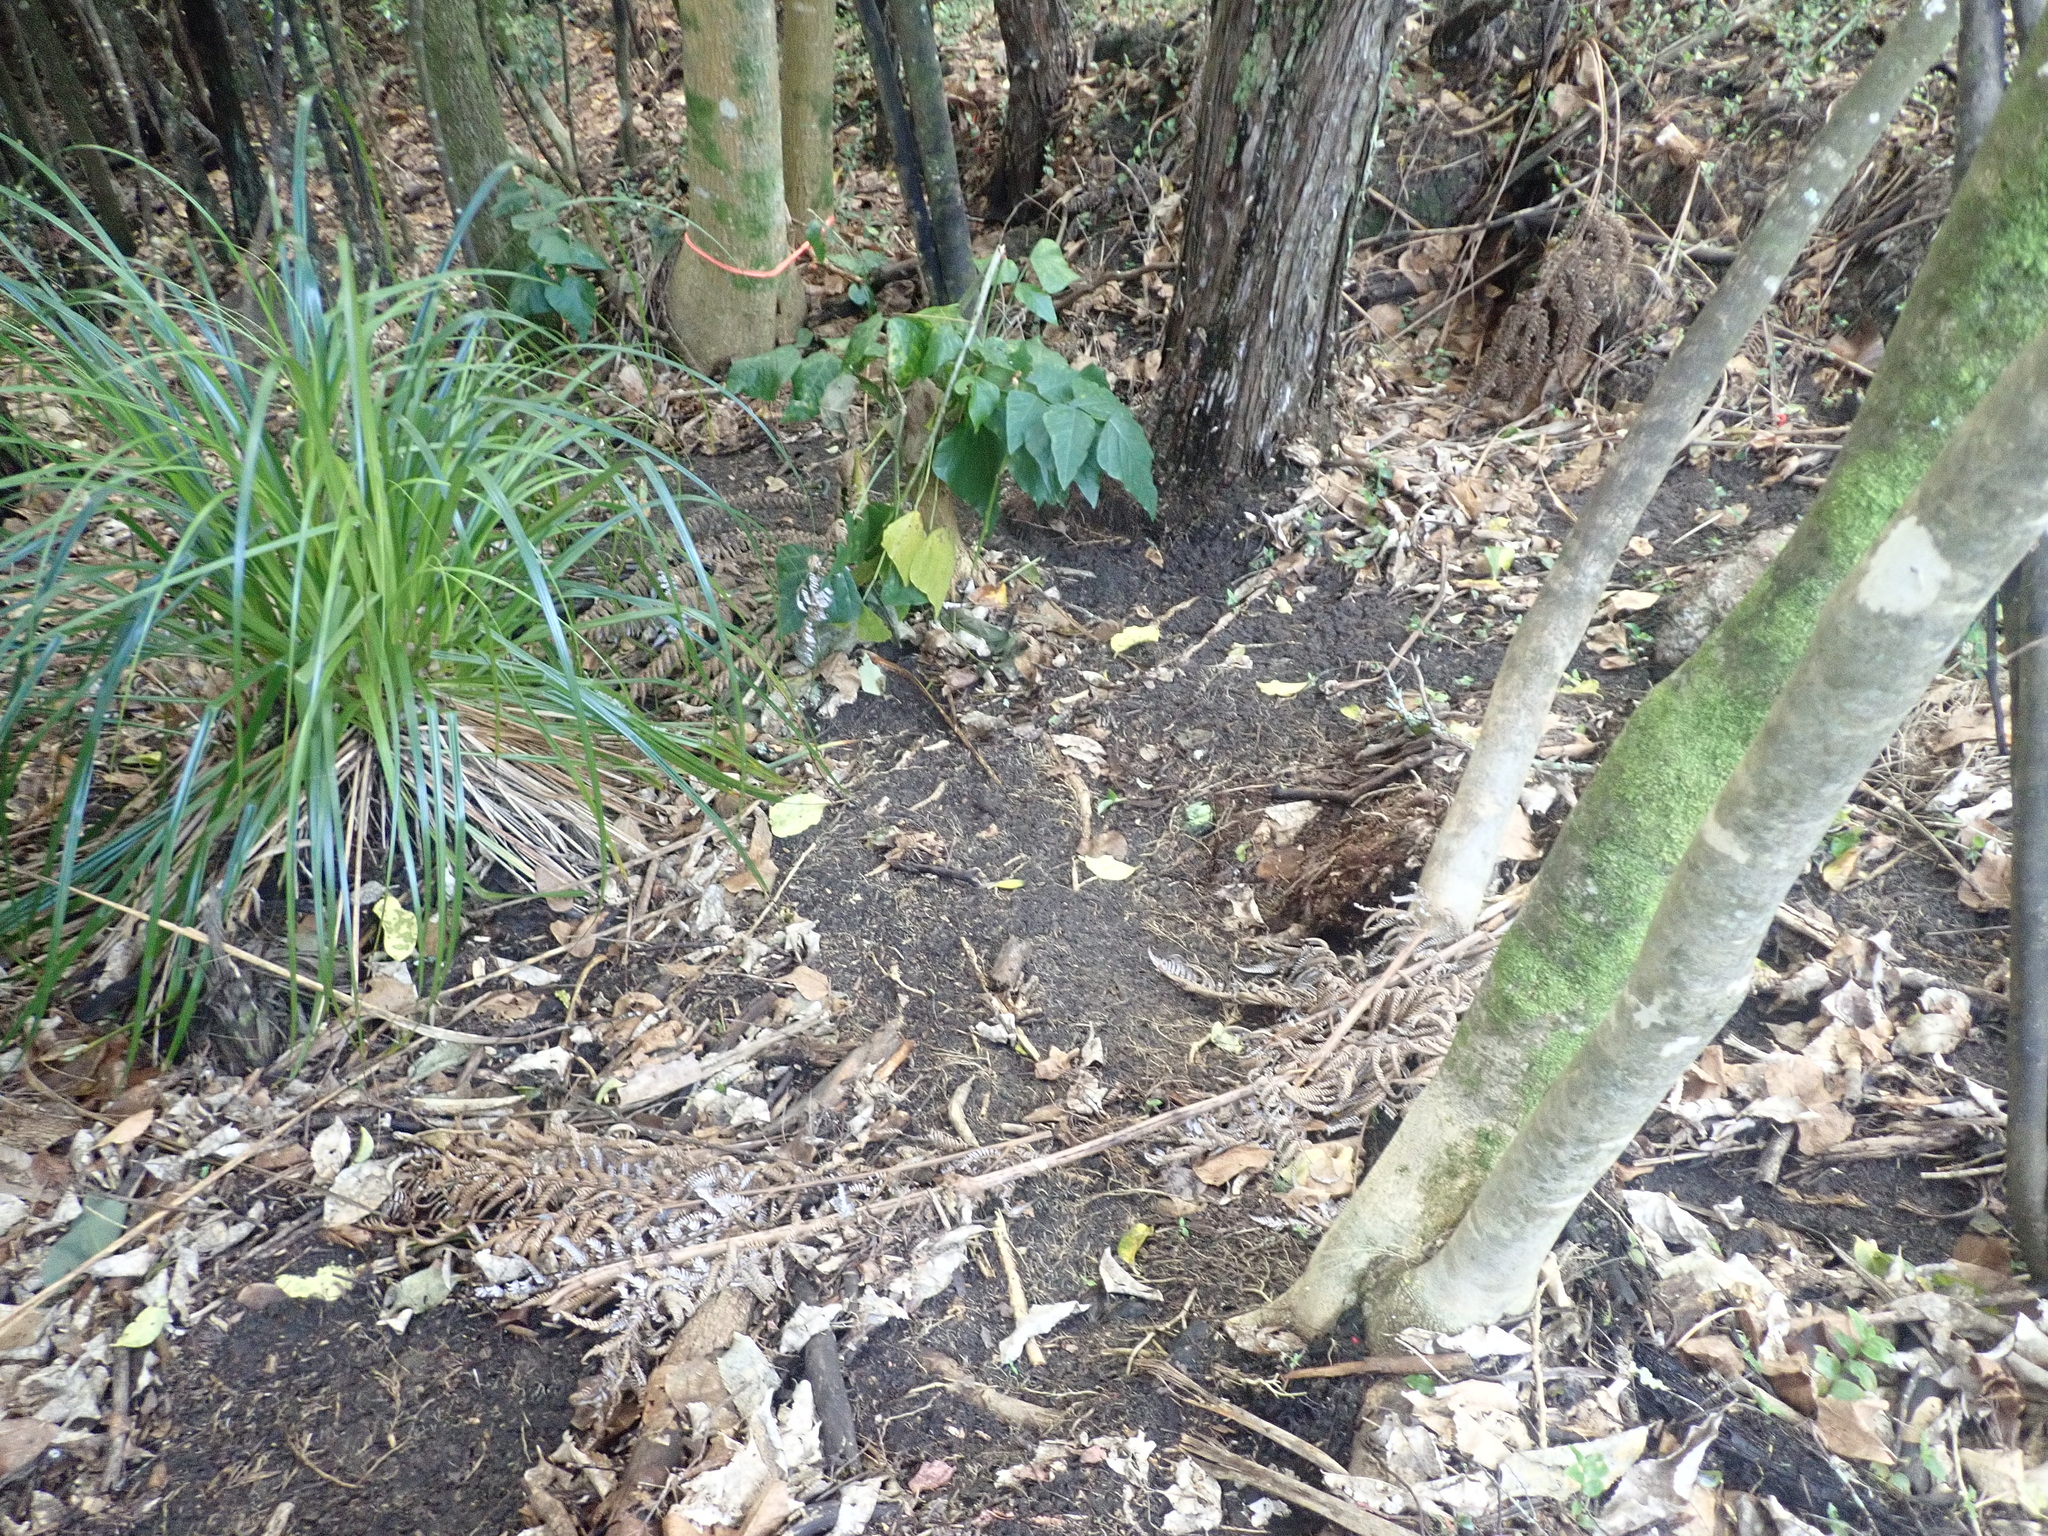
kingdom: Plantae
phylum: Tracheophyta
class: Liliopsida
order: Poales
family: Cyperaceae
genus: Gahnia
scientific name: Gahnia xanthocarpa
